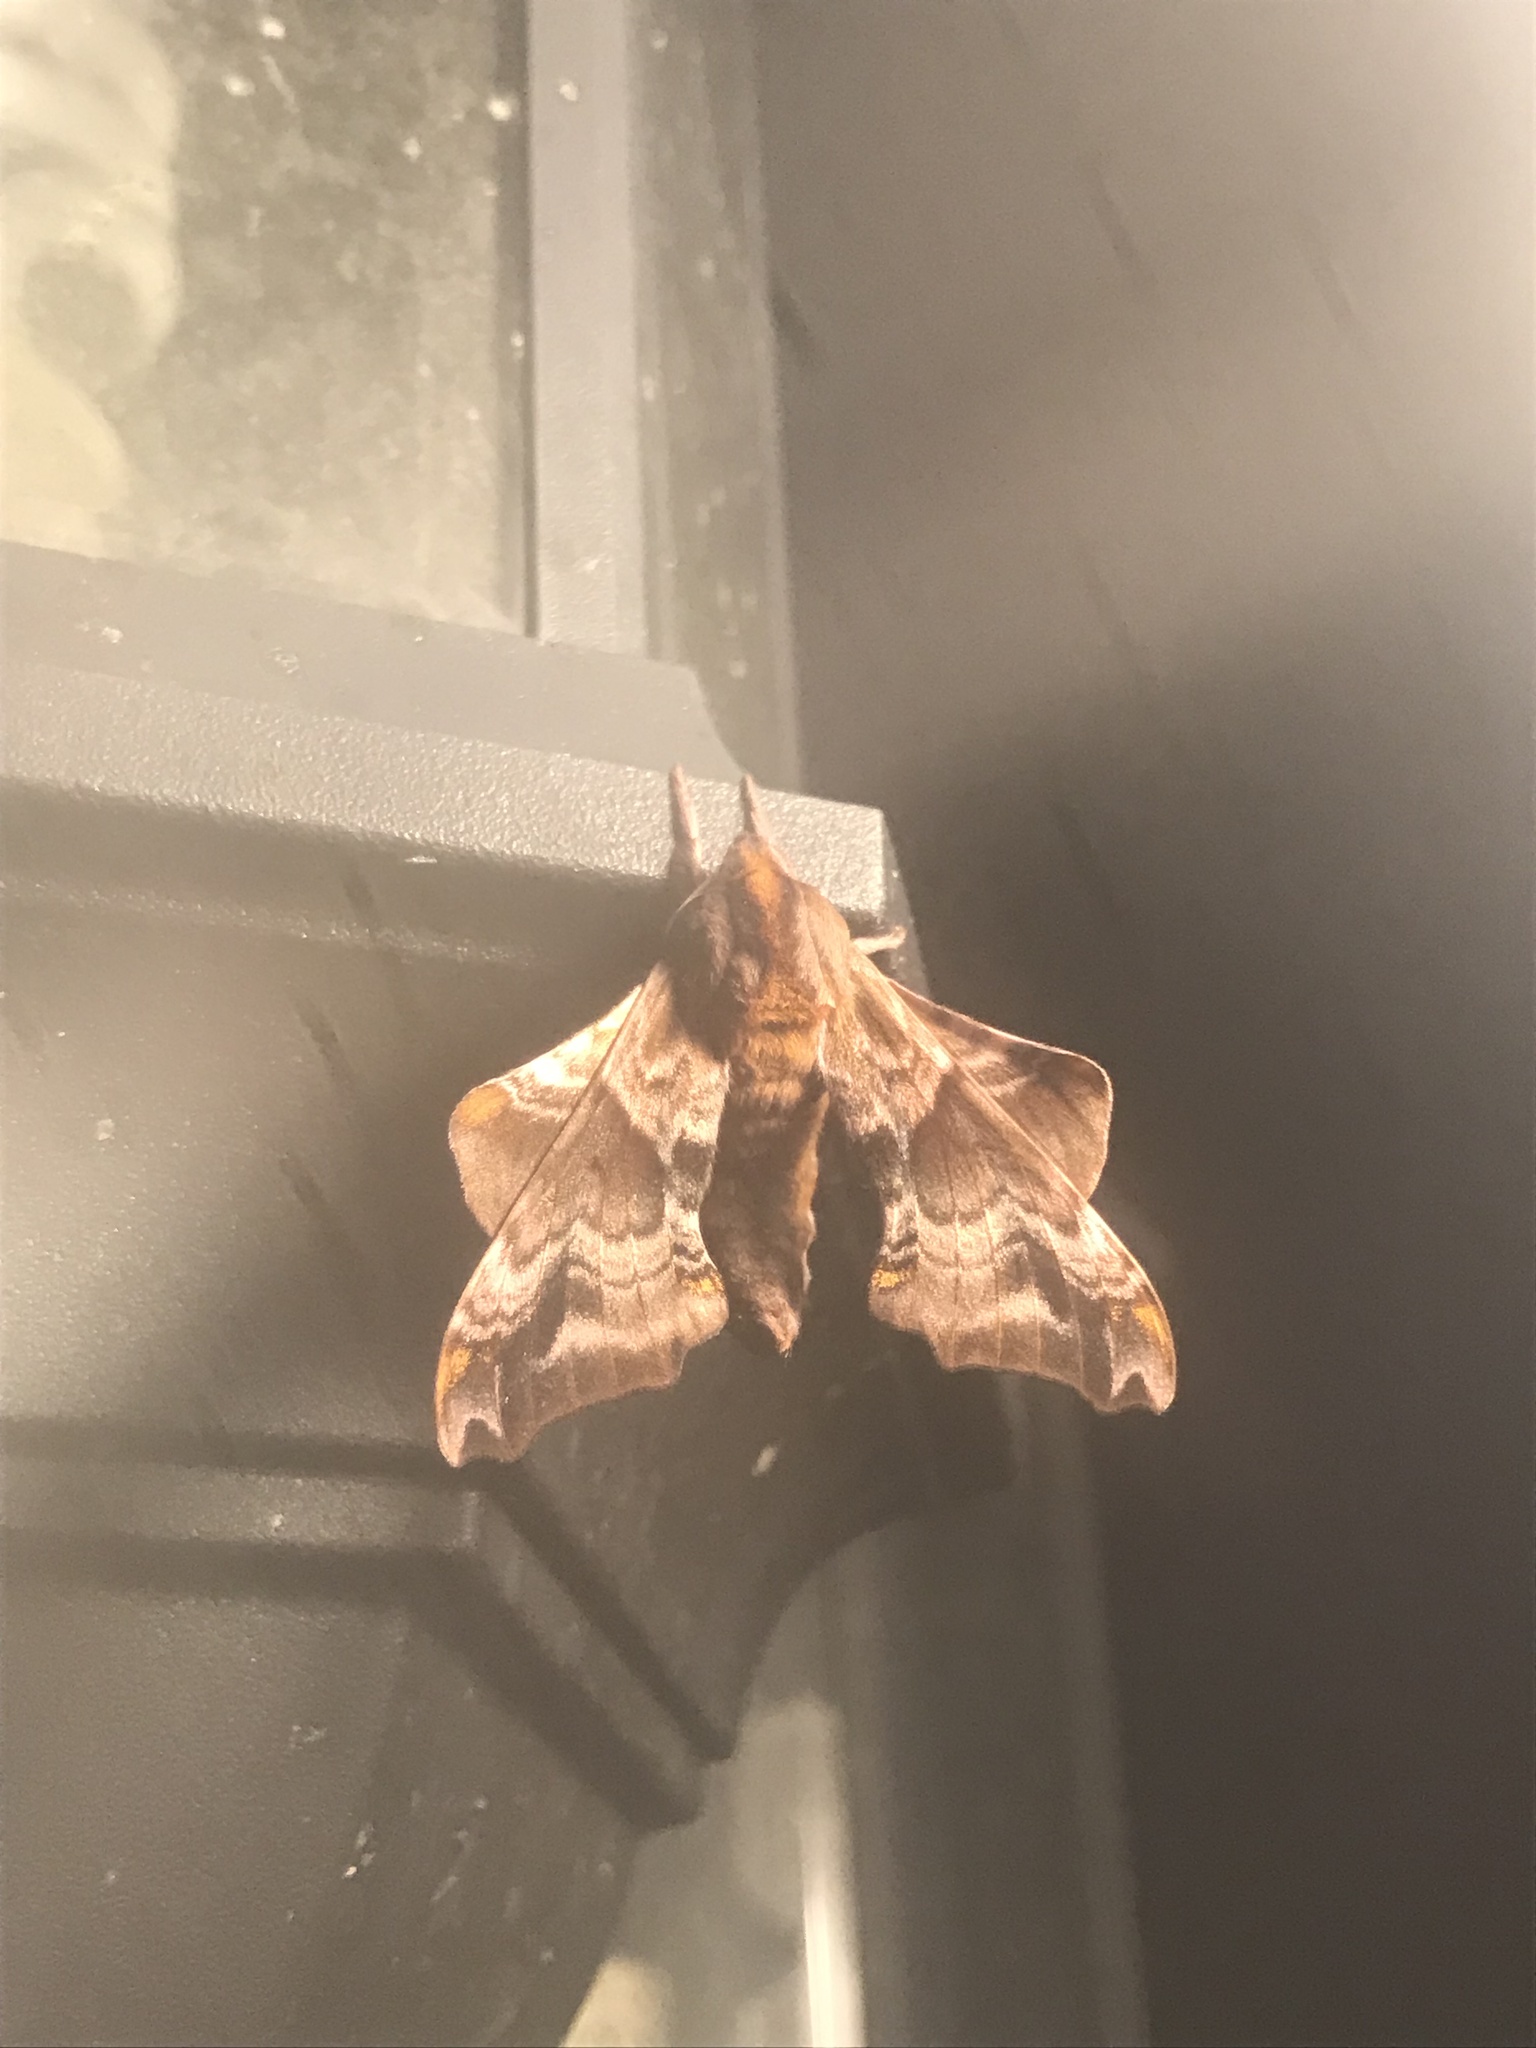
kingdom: Animalia
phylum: Arthropoda
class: Insecta
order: Lepidoptera
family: Sphingidae
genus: Paonias
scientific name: Paonias myops
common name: Small-eyed sphinx
